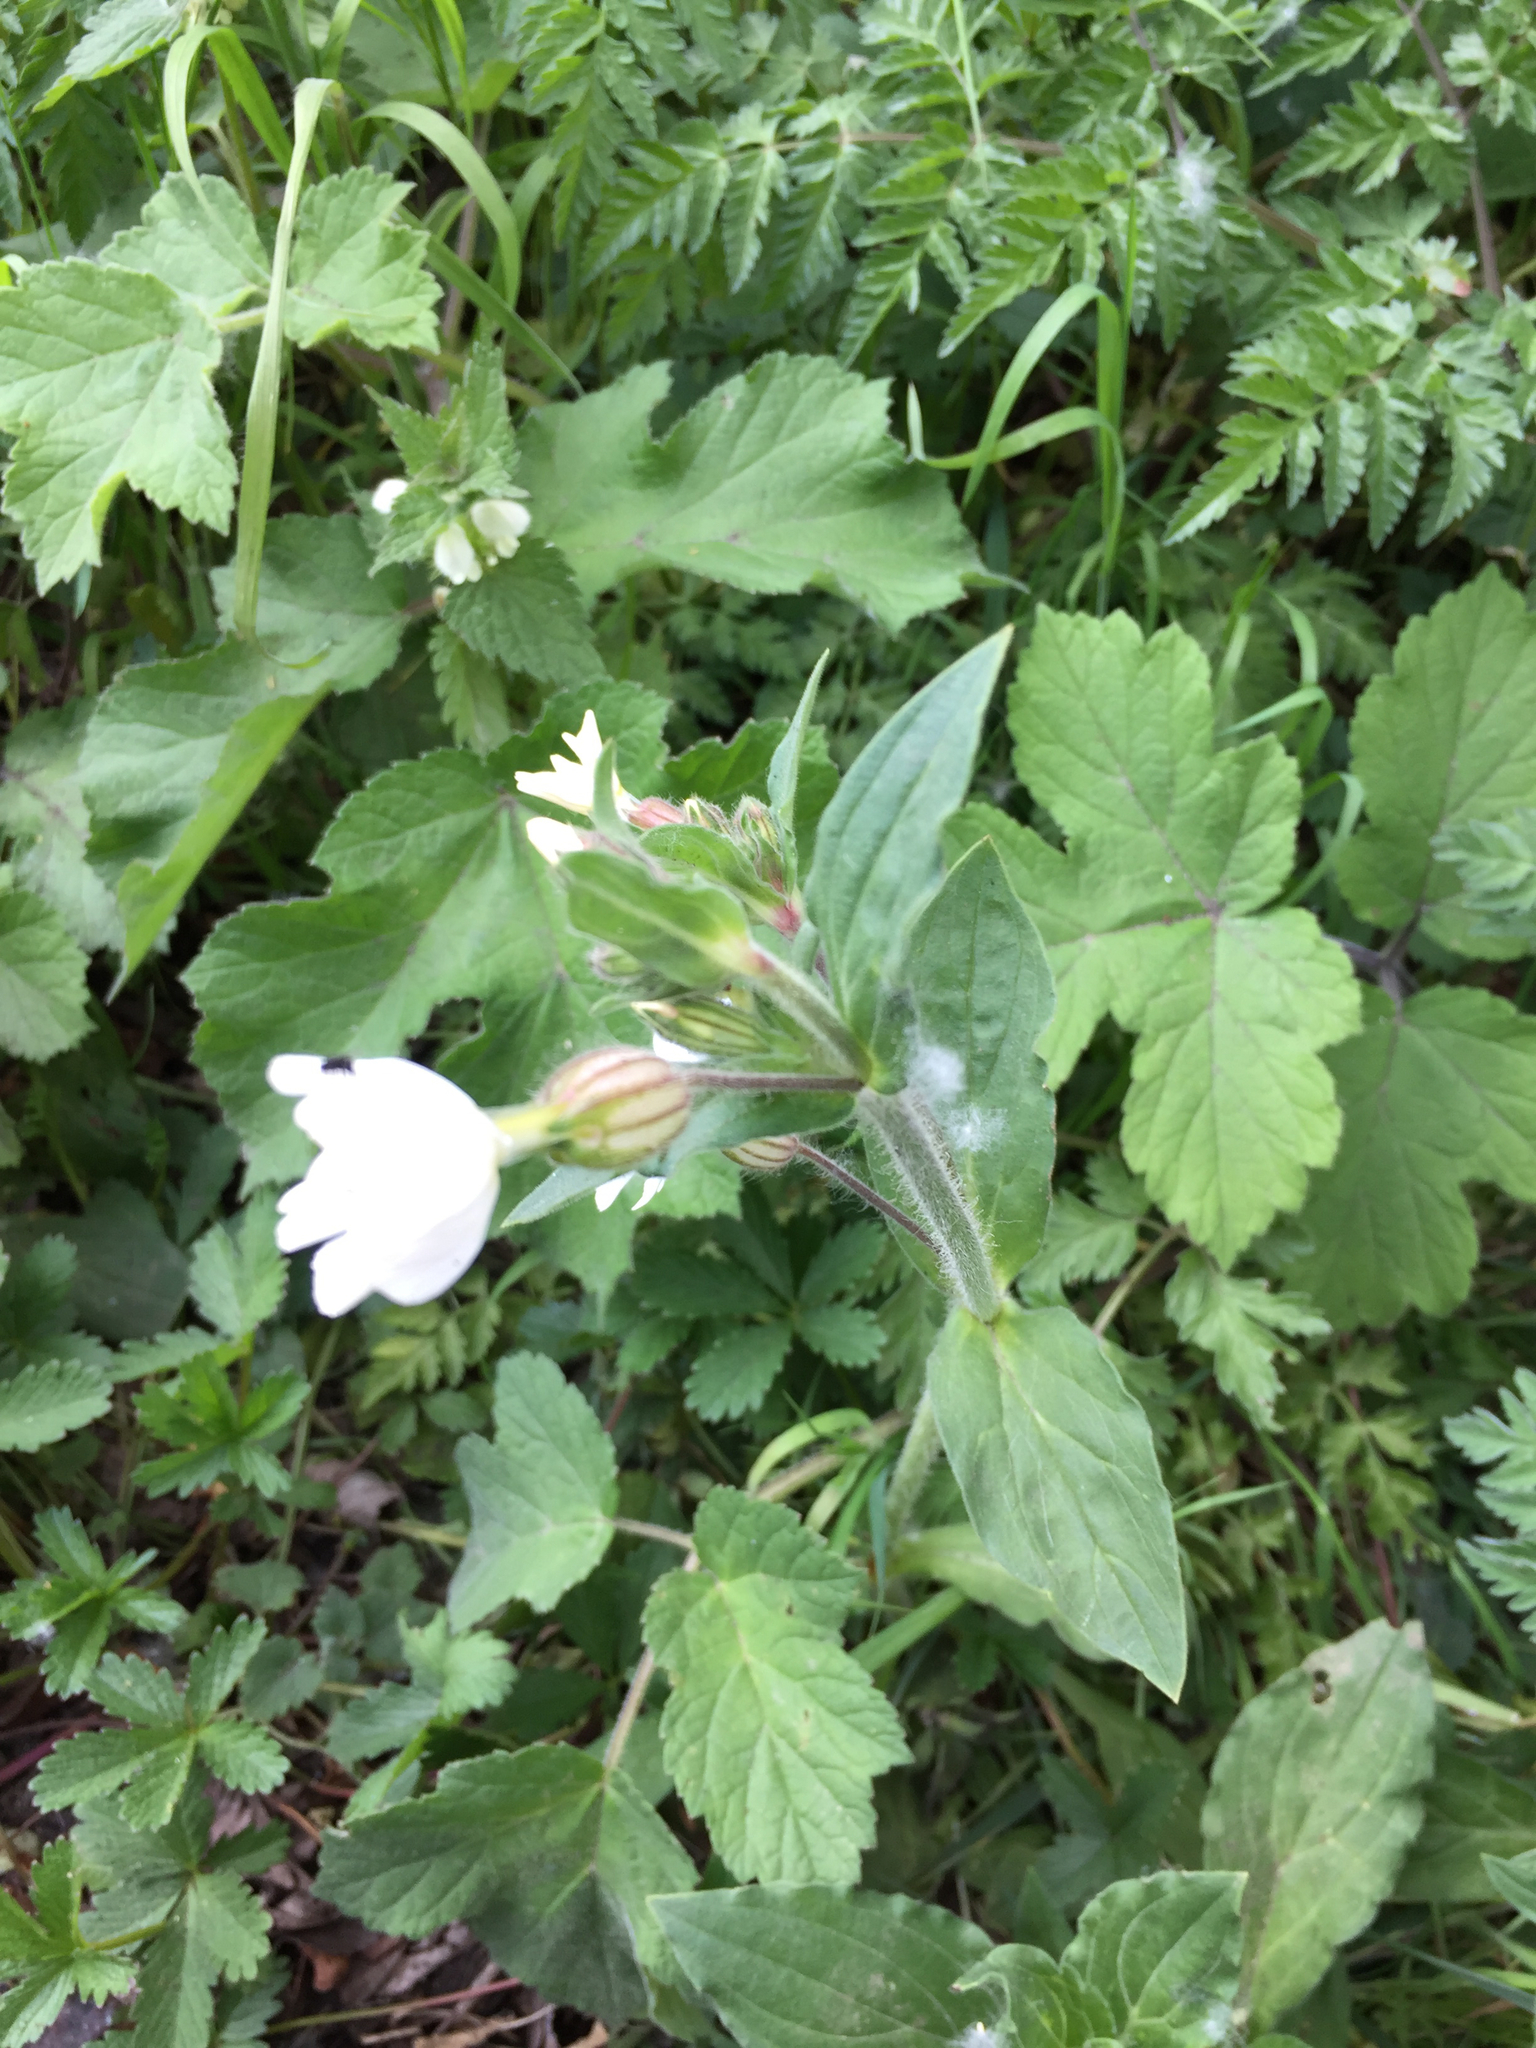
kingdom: Plantae
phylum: Tracheophyta
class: Magnoliopsida
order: Caryophyllales
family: Caryophyllaceae
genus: Silene
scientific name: Silene latifolia
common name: White campion
